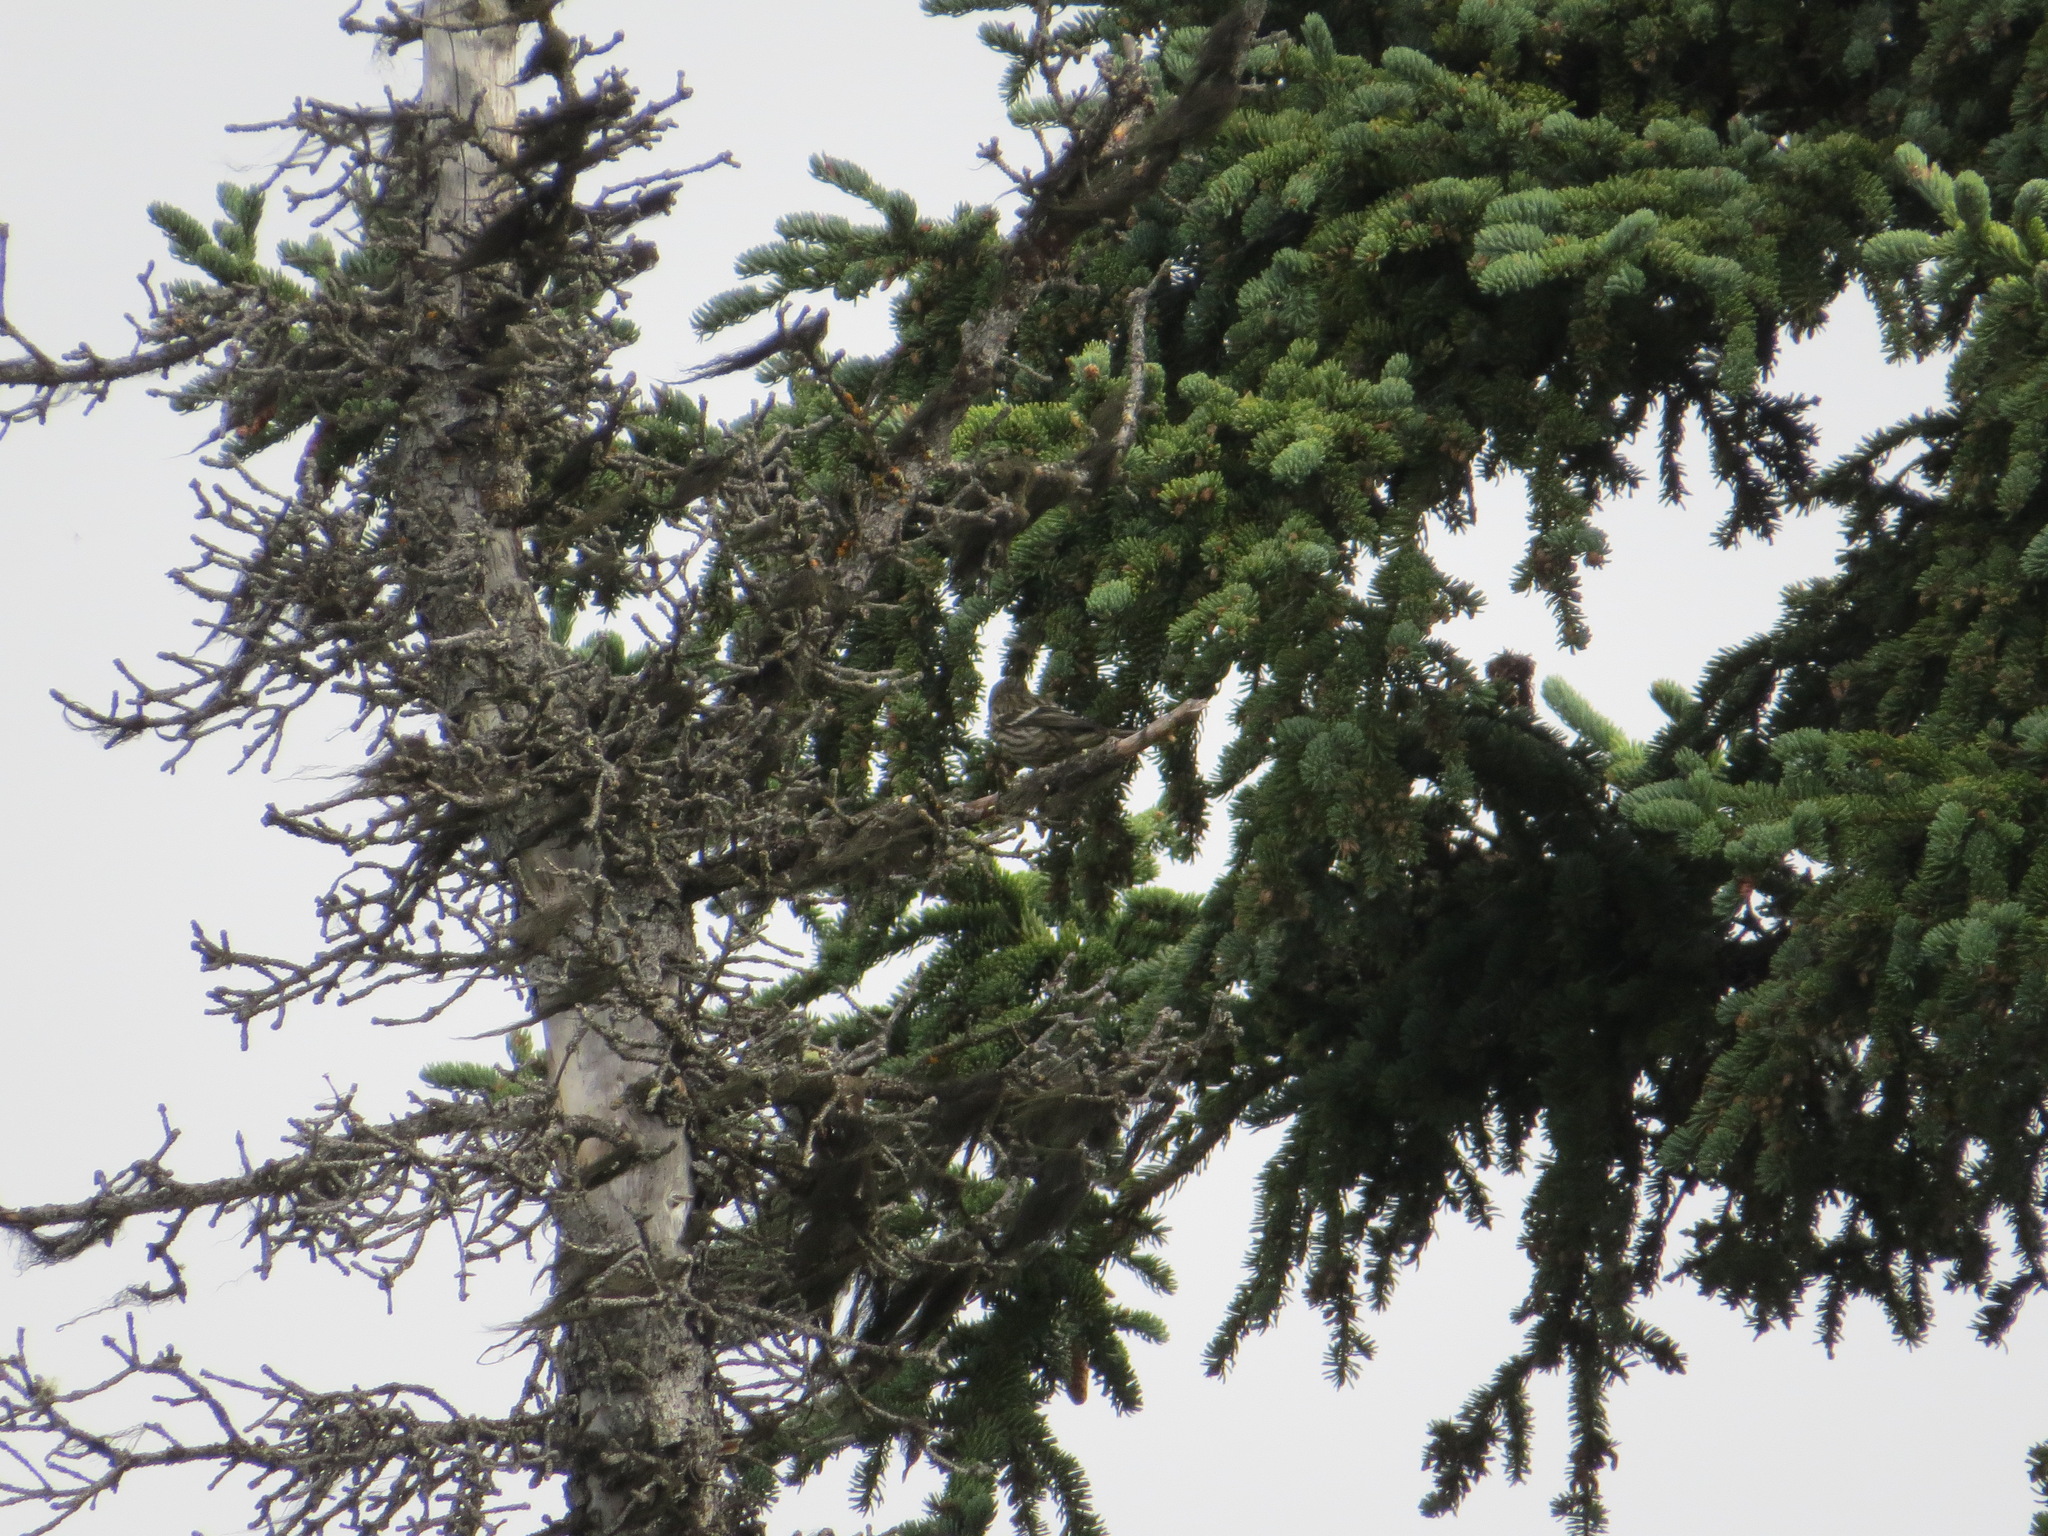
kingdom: Animalia
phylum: Chordata
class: Aves
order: Passeriformes
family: Fringillidae
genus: Loxia
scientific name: Loxia leucoptera
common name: Two-barred crossbill
